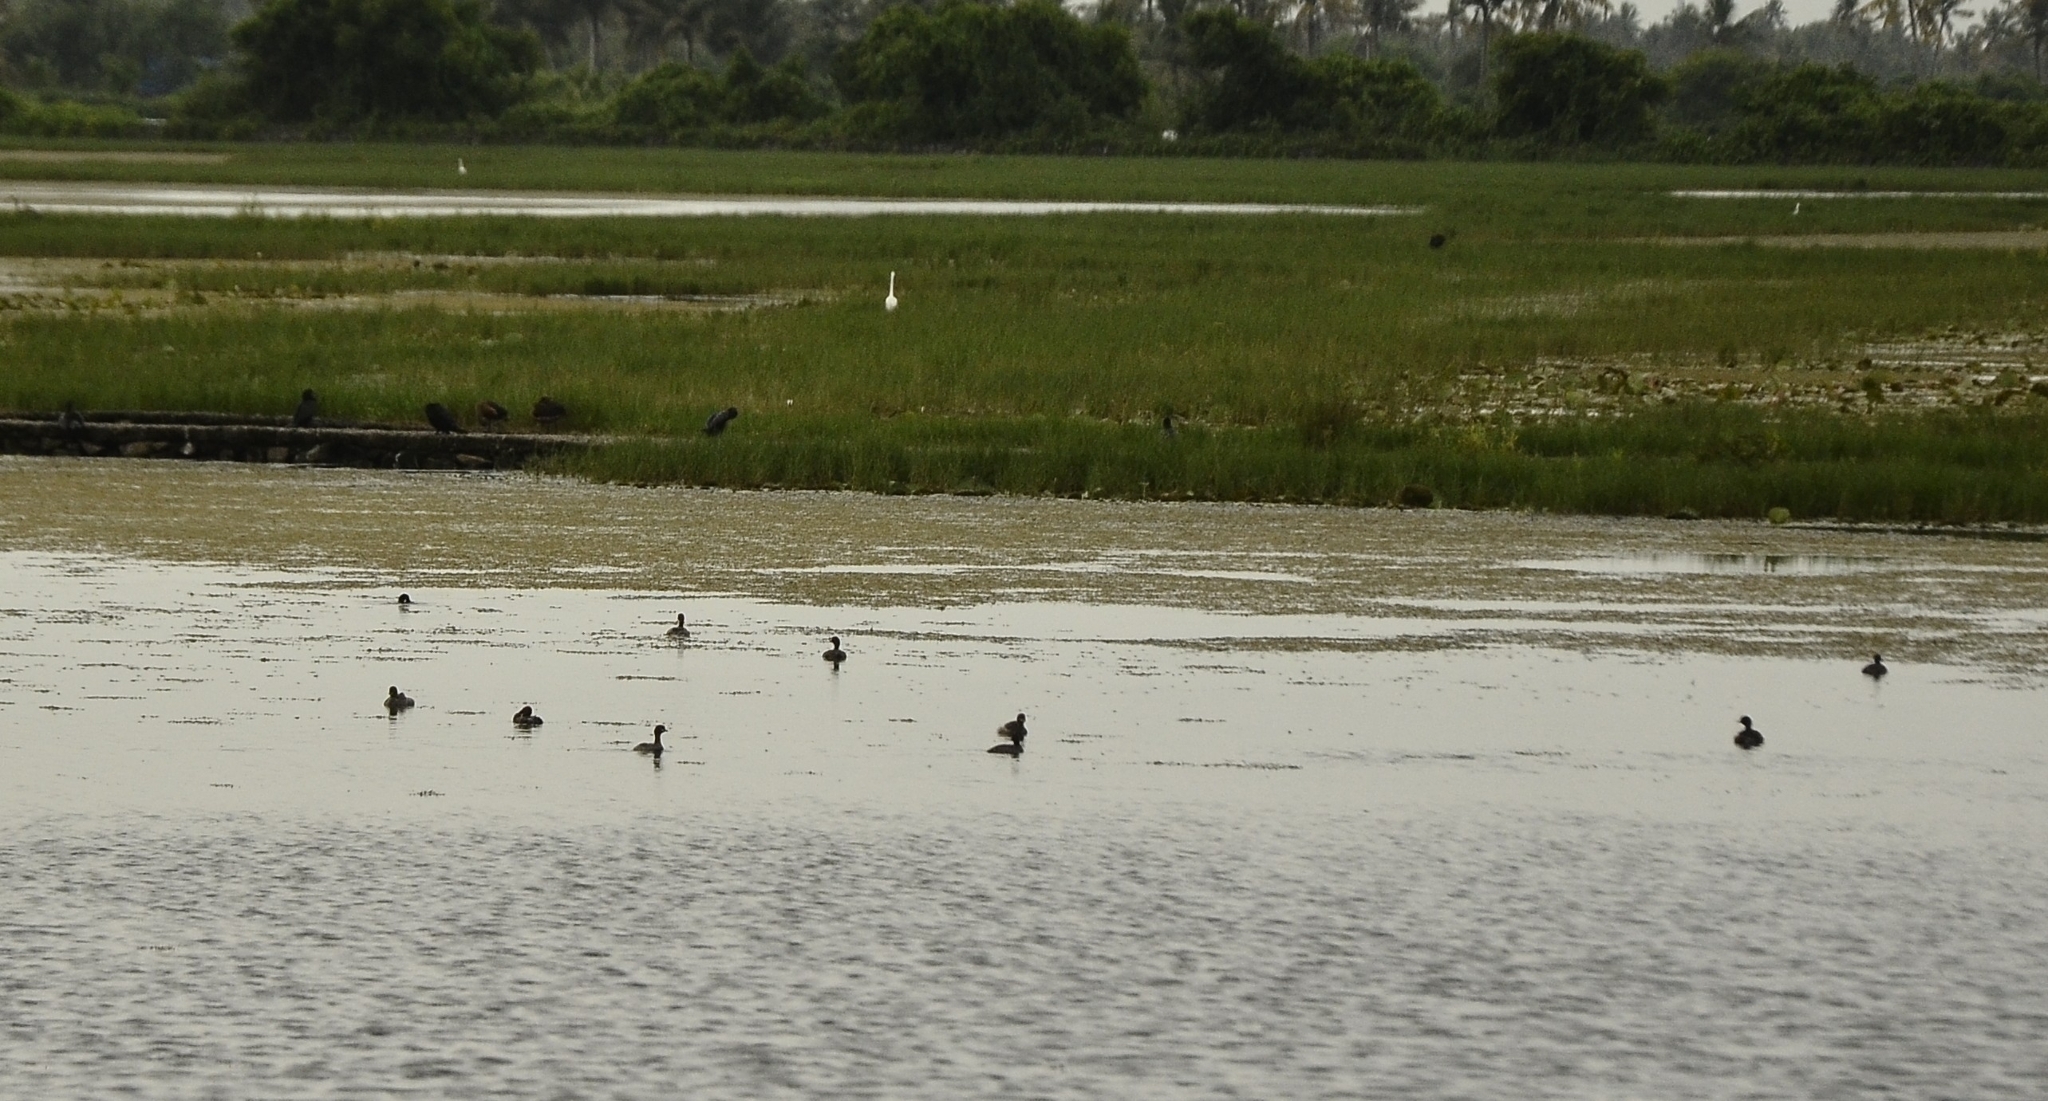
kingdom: Animalia
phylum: Chordata
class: Aves
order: Podicipediformes
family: Podicipedidae
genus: Tachybaptus
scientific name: Tachybaptus ruficollis
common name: Little grebe
